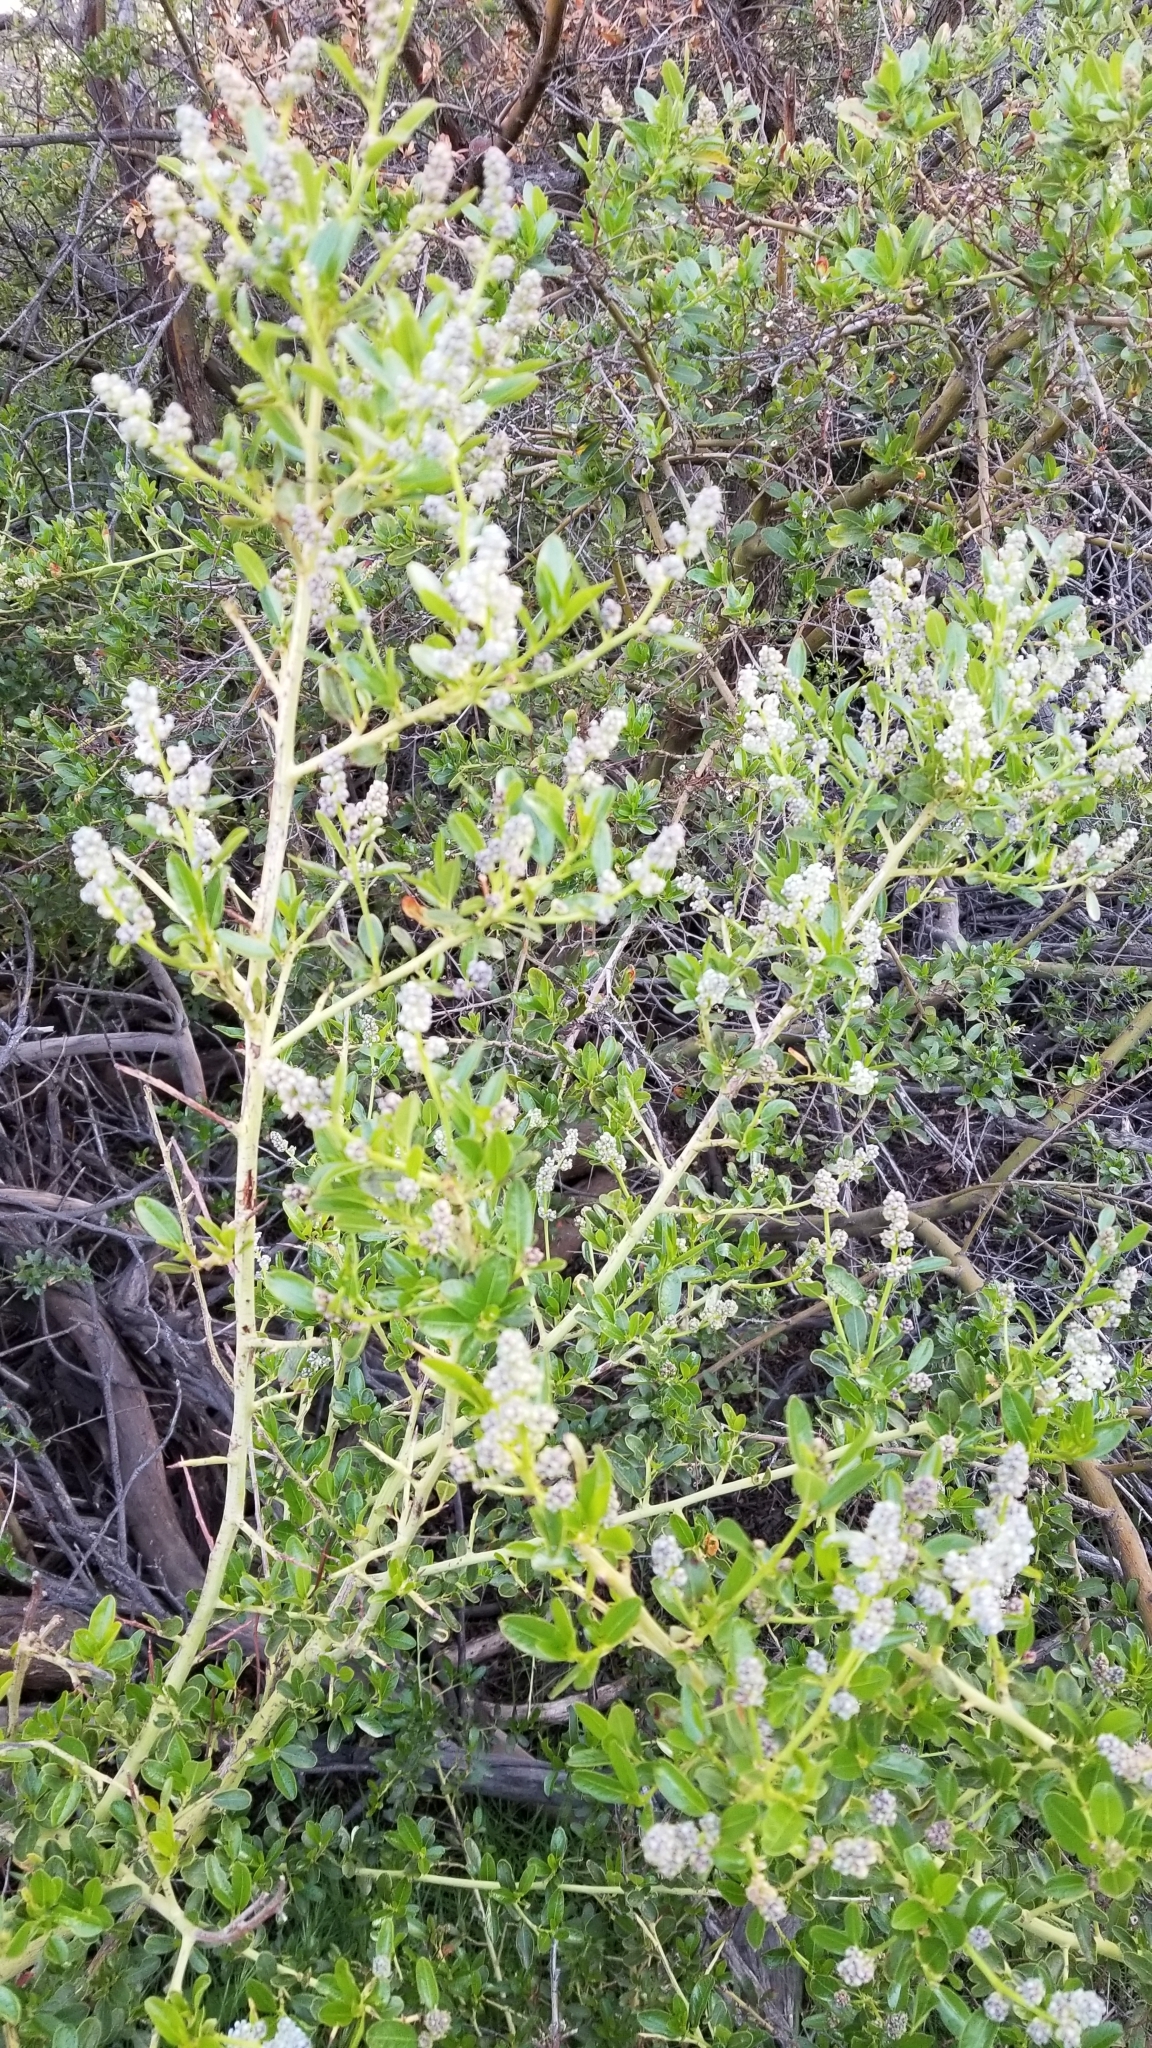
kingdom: Plantae
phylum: Tracheophyta
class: Magnoliopsida
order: Rosales
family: Rhamnaceae
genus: Ceanothus
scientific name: Ceanothus spinosus
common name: Greenbark whitethorn
